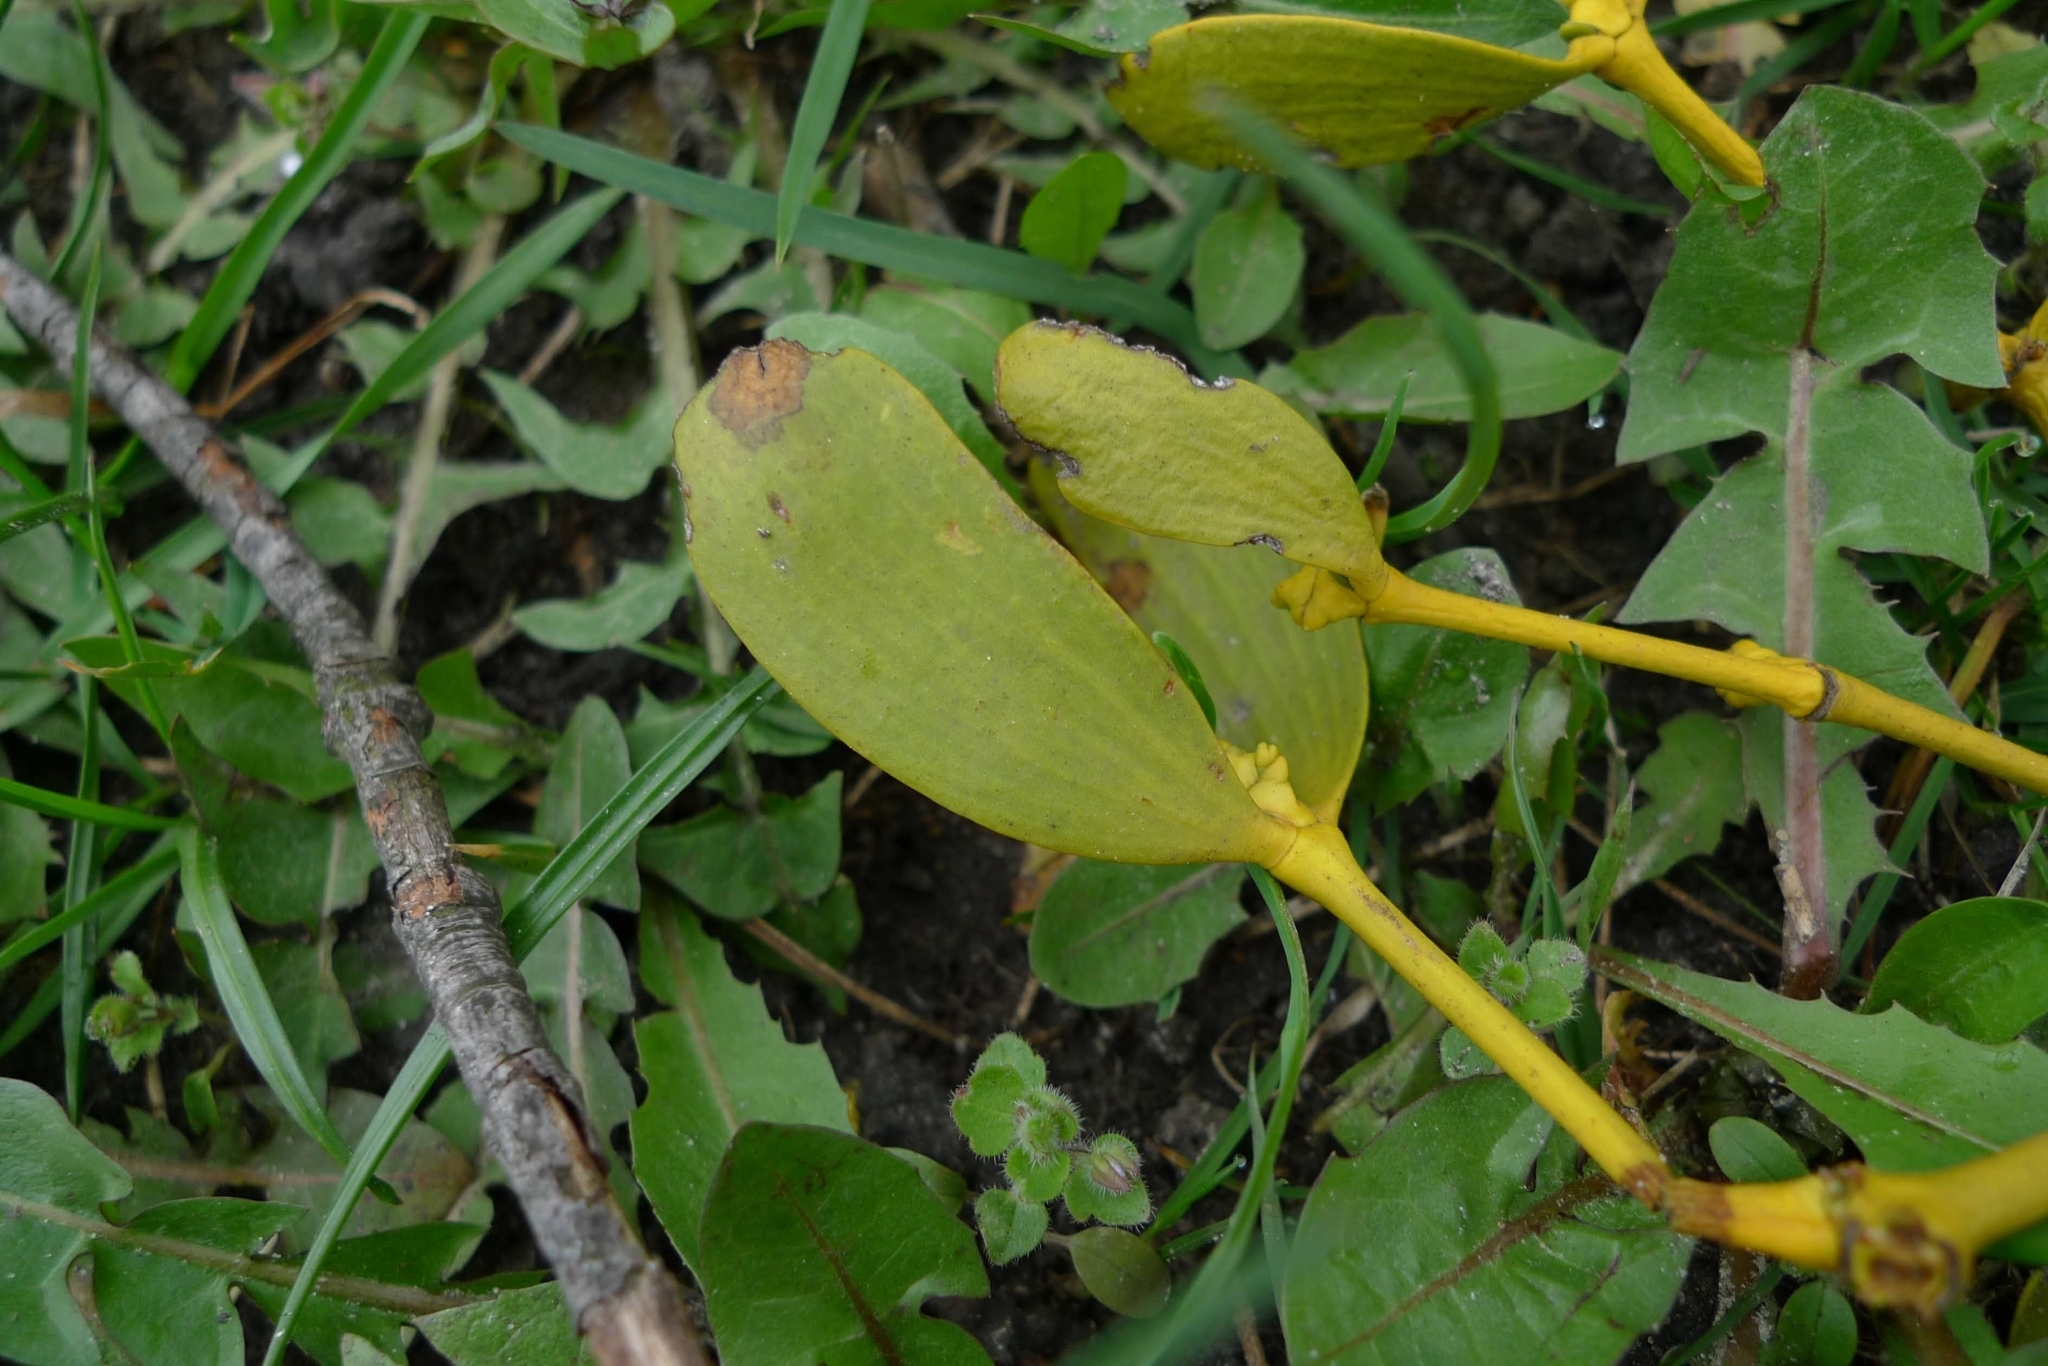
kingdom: Plantae
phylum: Tracheophyta
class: Magnoliopsida
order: Santalales
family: Viscaceae
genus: Viscum
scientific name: Viscum album
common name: Mistletoe
